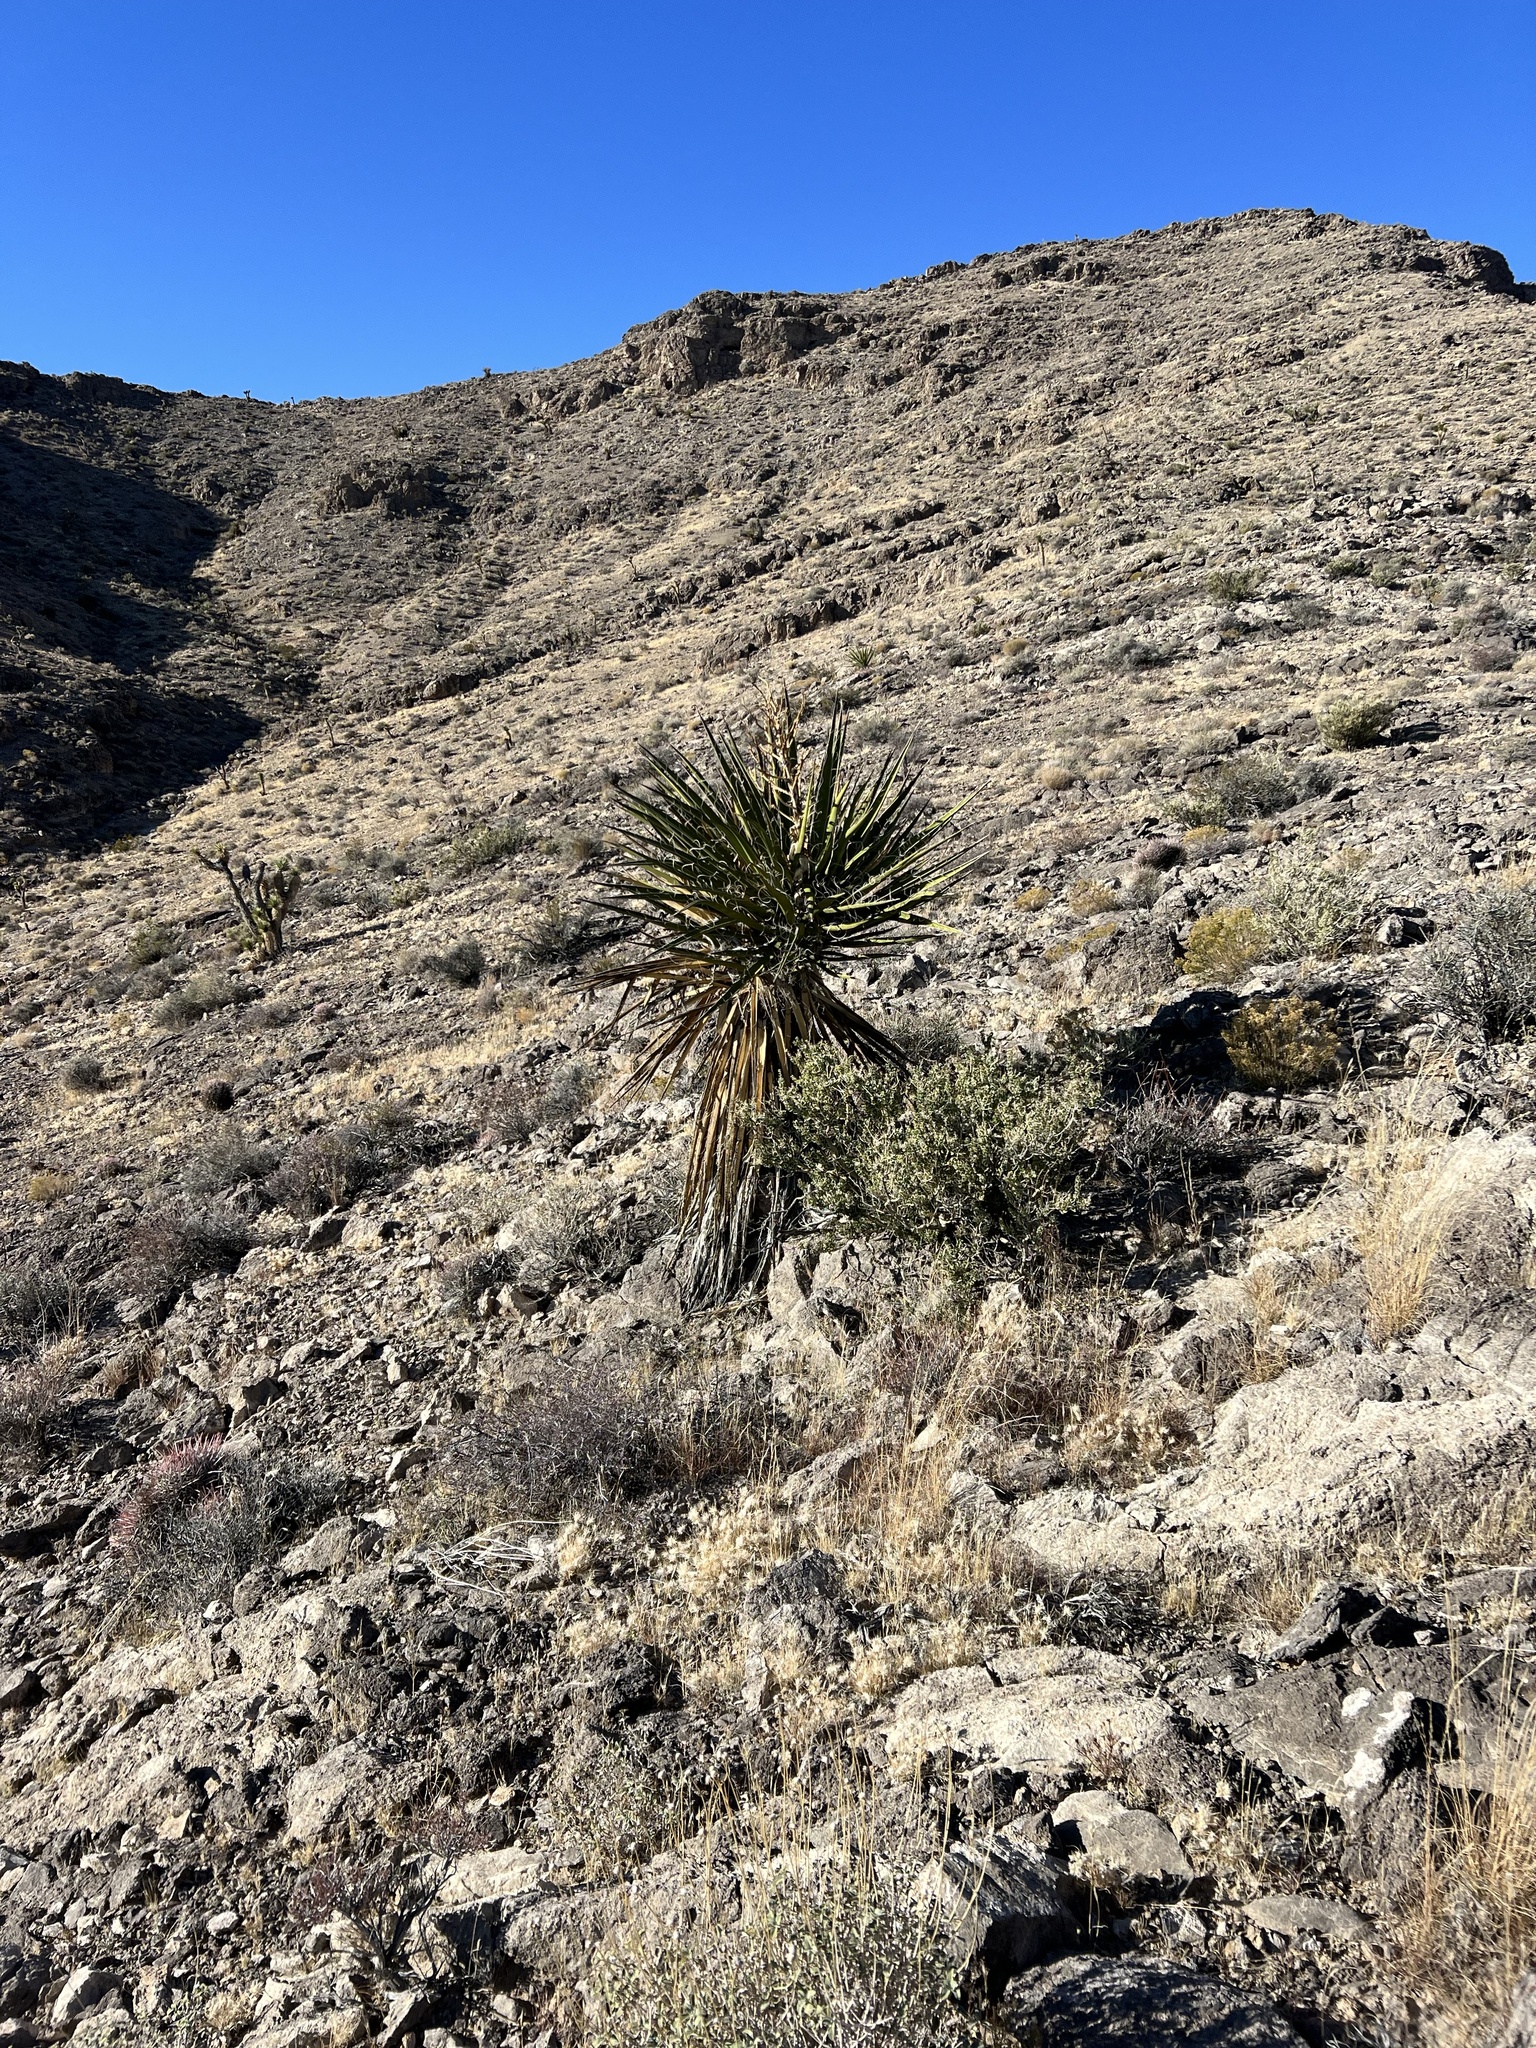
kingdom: Plantae
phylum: Tracheophyta
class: Liliopsida
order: Asparagales
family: Asparagaceae
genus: Yucca
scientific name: Yucca schidigera
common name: Mojave yucca
